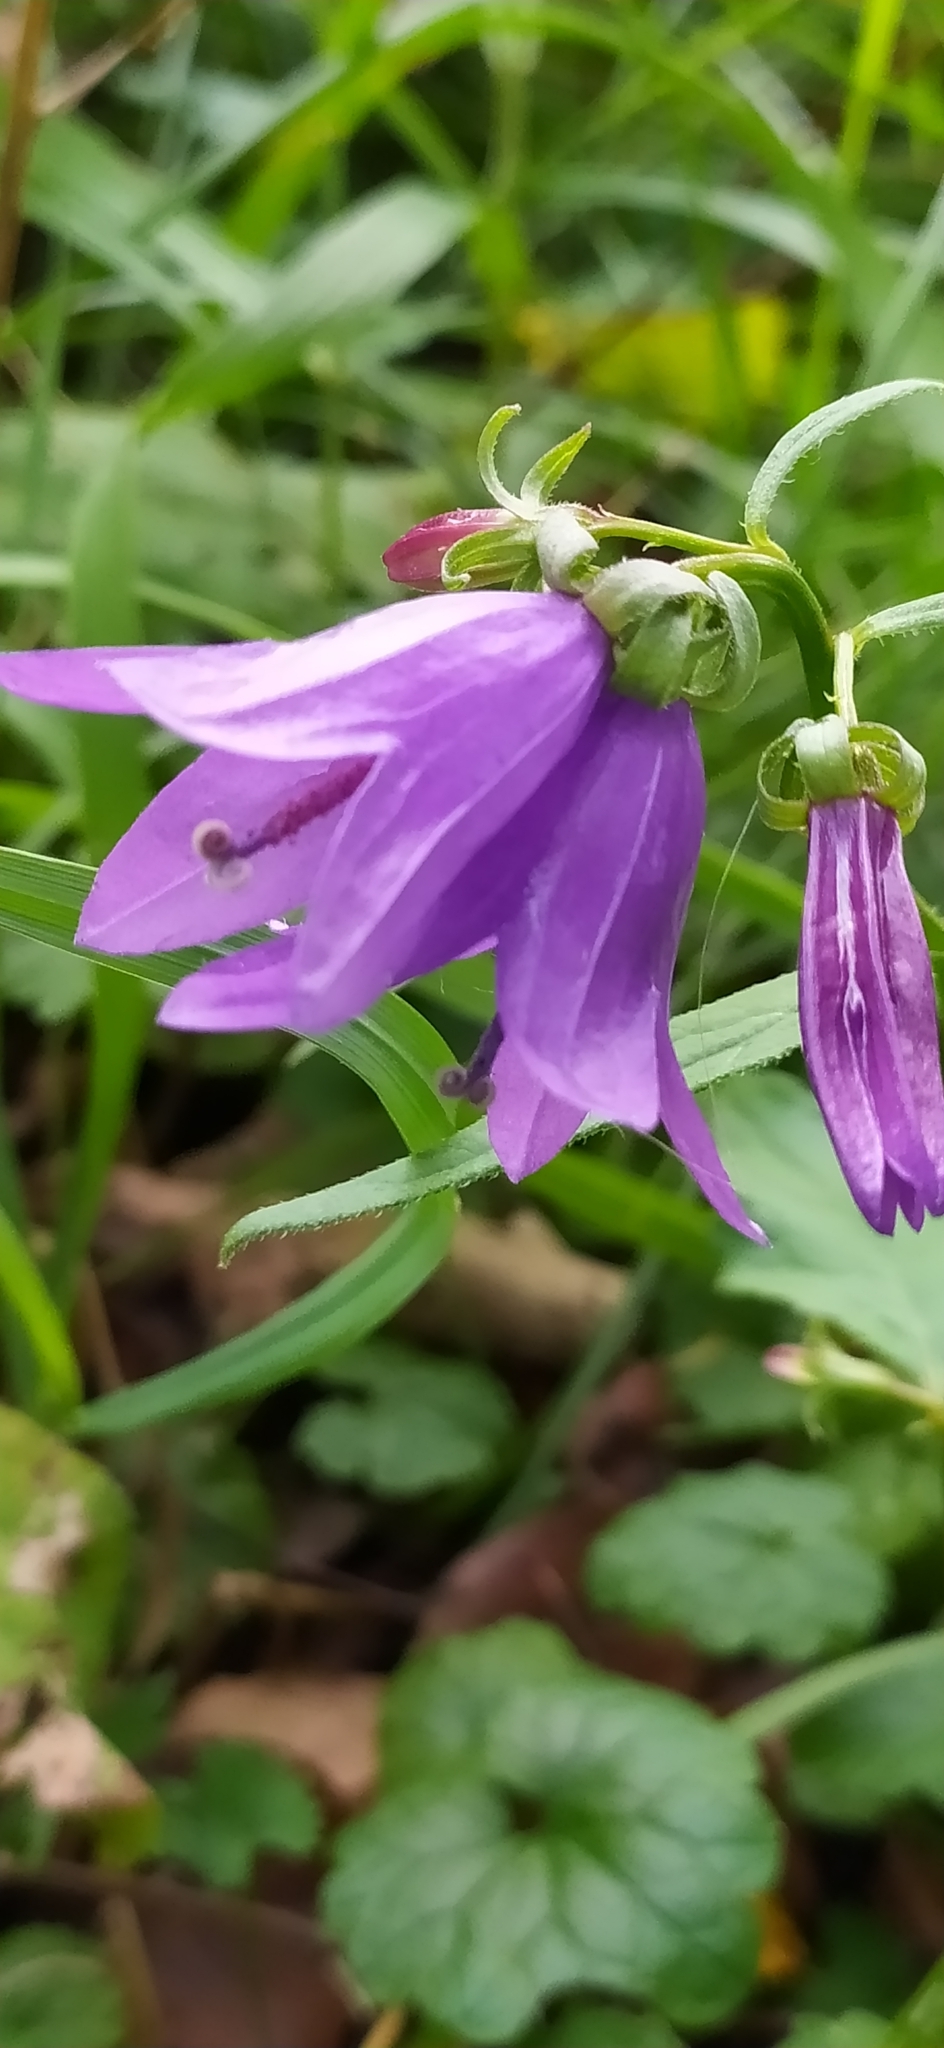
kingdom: Plantae
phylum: Tracheophyta
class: Magnoliopsida
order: Asterales
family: Campanulaceae
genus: Campanula
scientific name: Campanula rapunculoides
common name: Creeping bellflower
